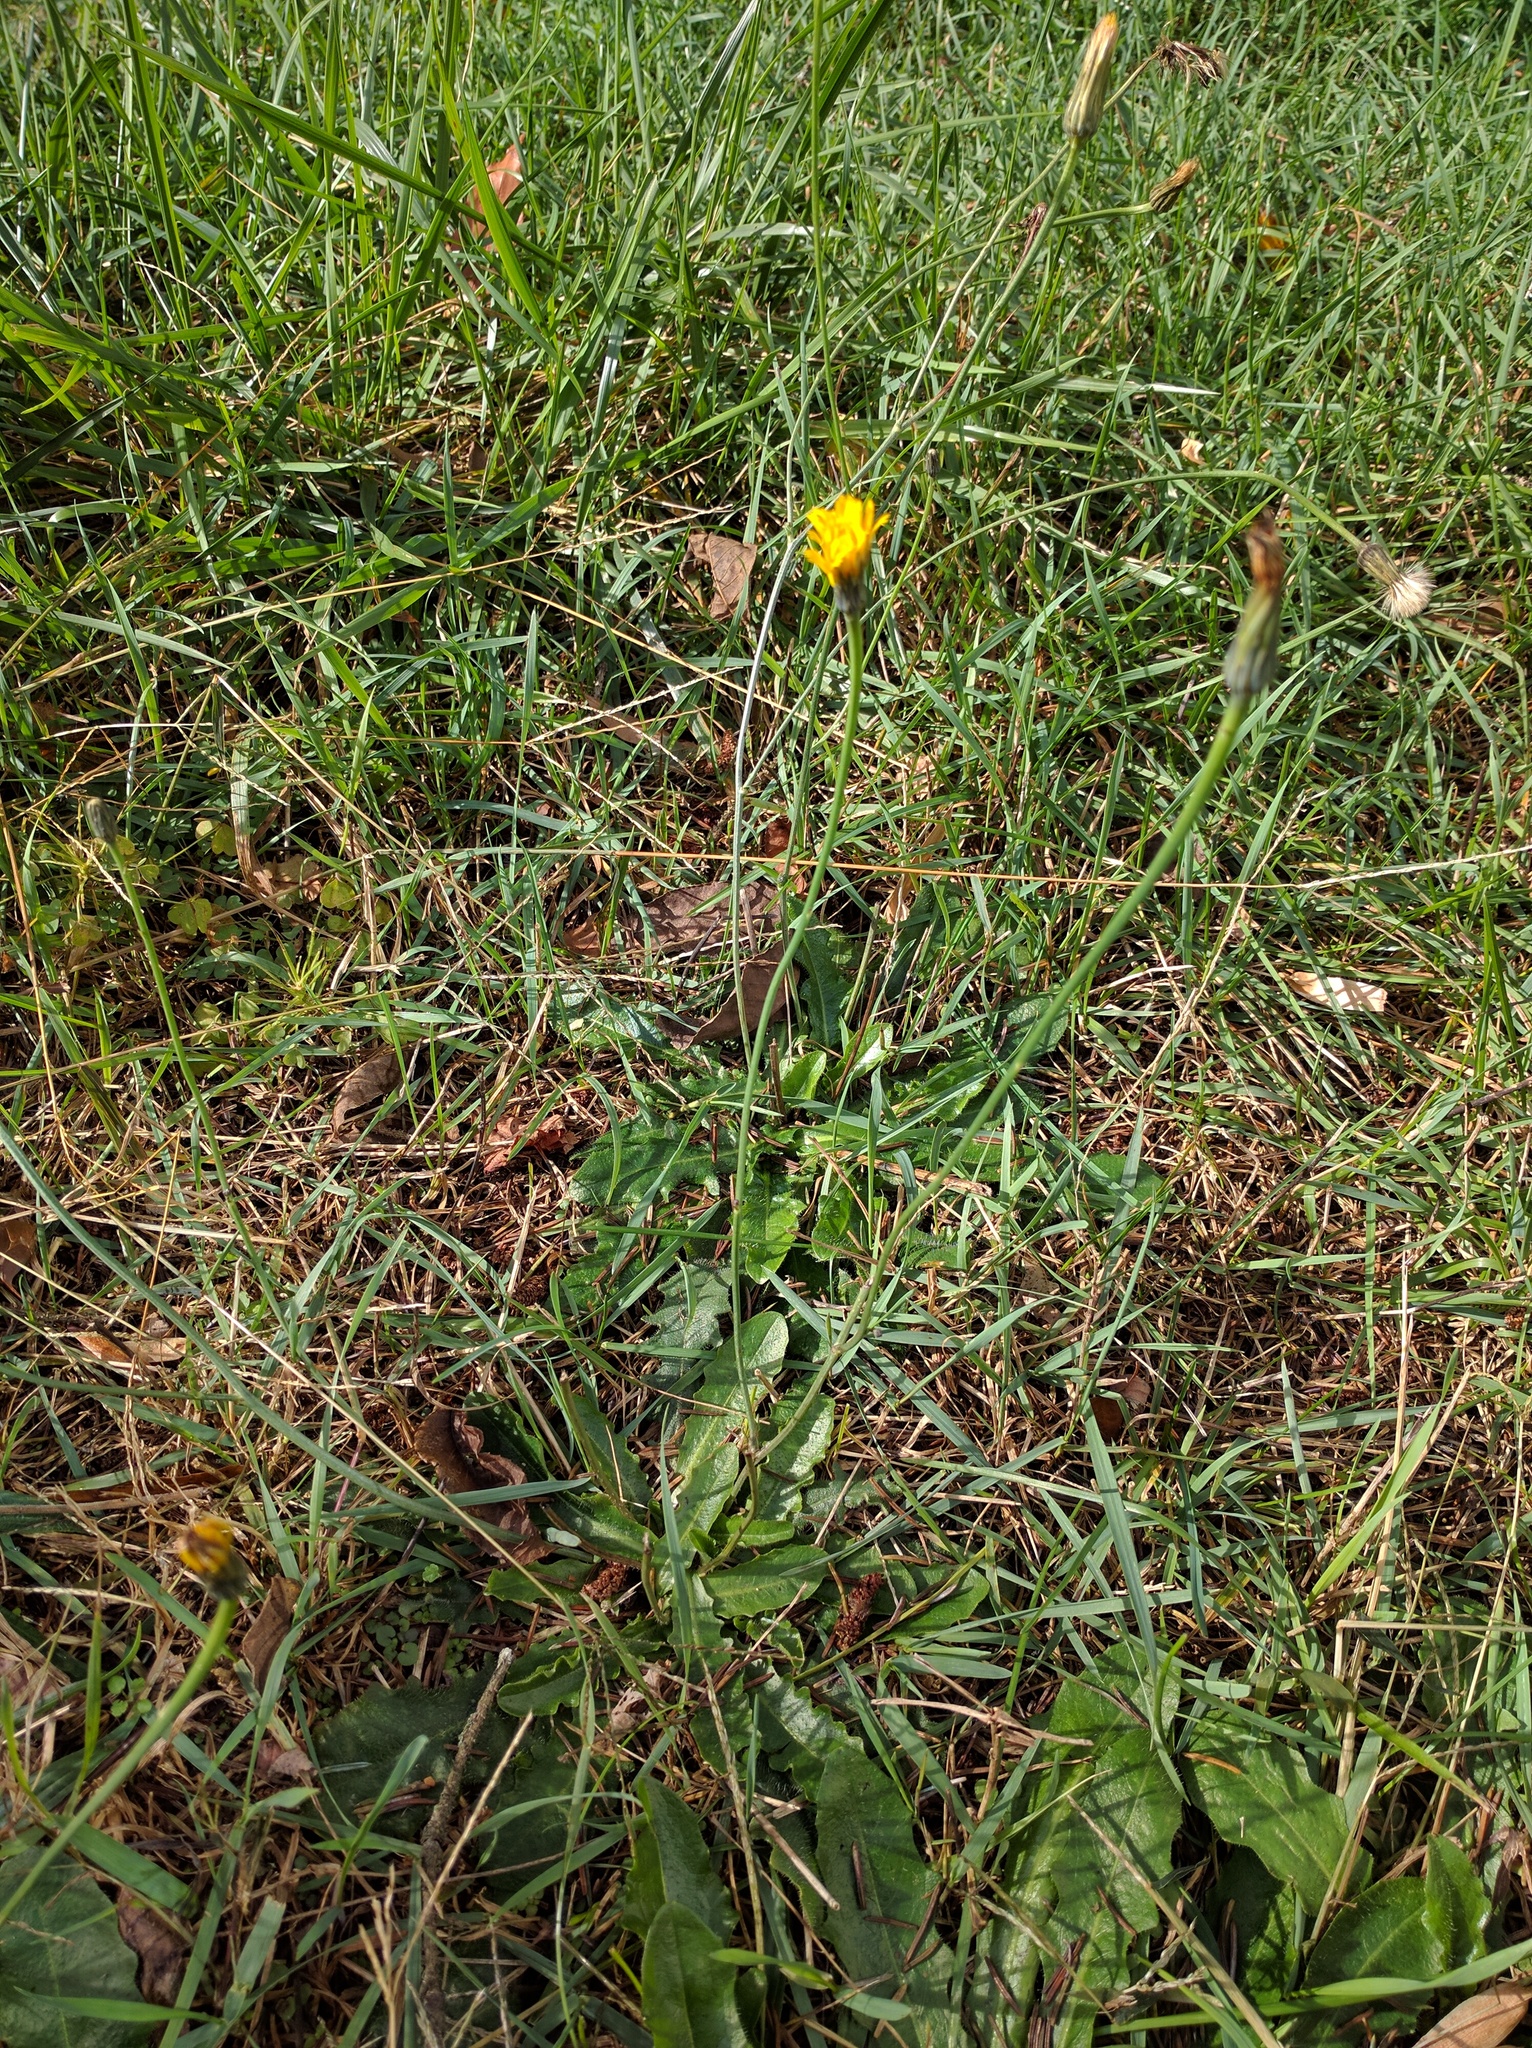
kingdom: Plantae
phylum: Tracheophyta
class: Magnoliopsida
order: Asterales
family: Asteraceae
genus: Hypochaeris
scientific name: Hypochaeris radicata
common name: Flatweed
